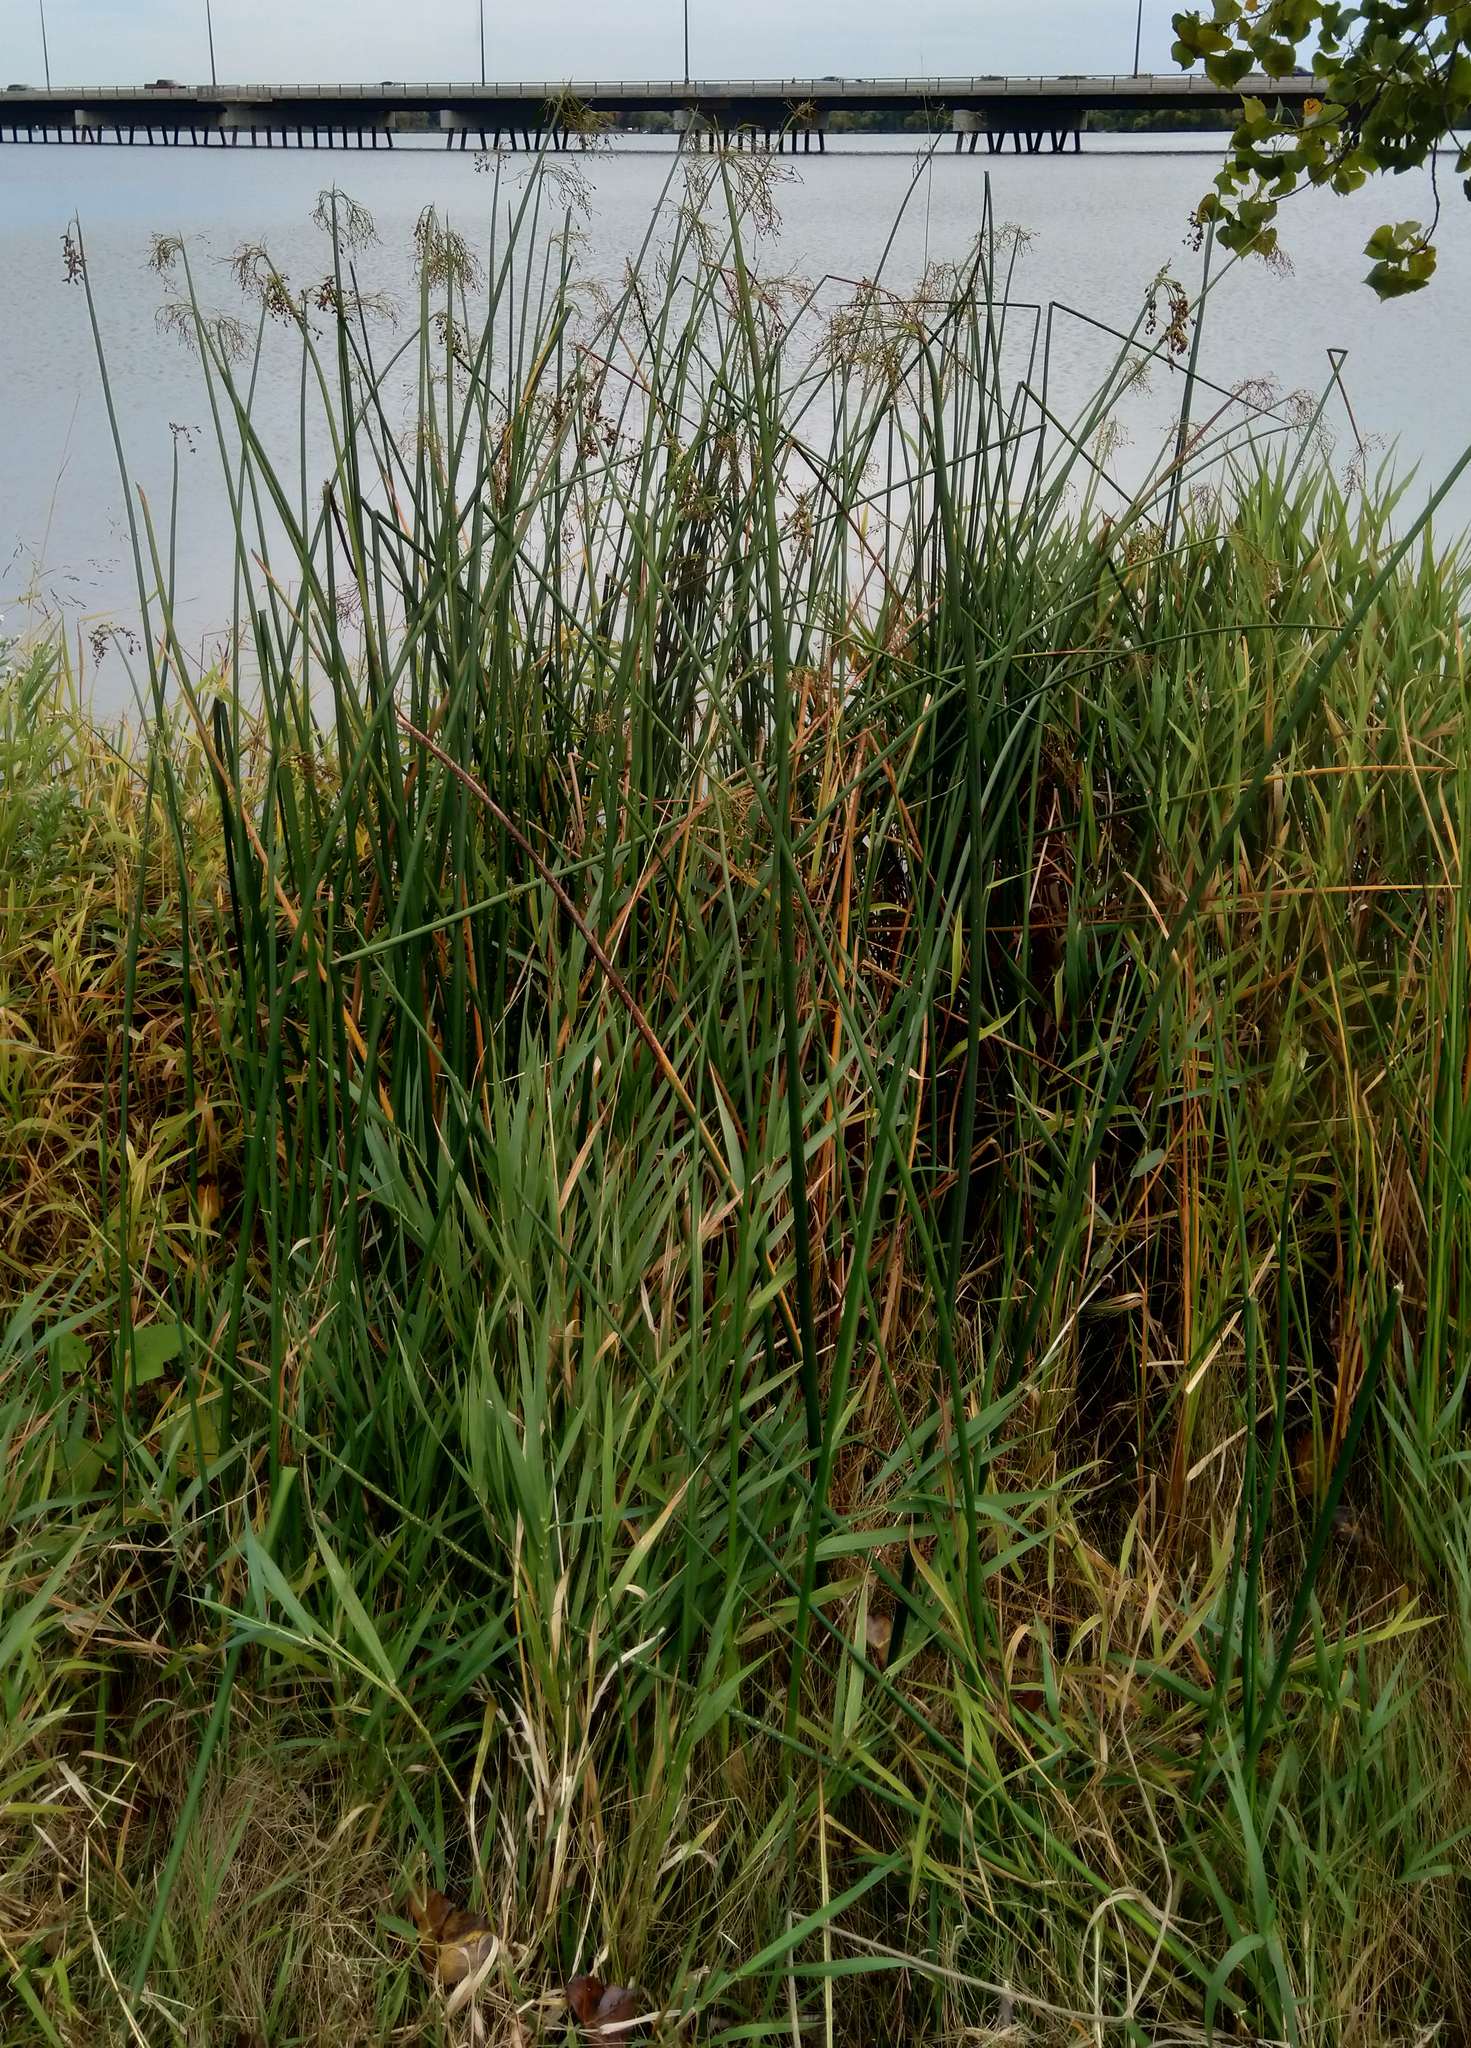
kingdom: Plantae
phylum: Tracheophyta
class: Liliopsida
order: Poales
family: Cyperaceae
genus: Schoenoplectus
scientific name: Schoenoplectus tabernaemontani
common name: Grey club-rush
